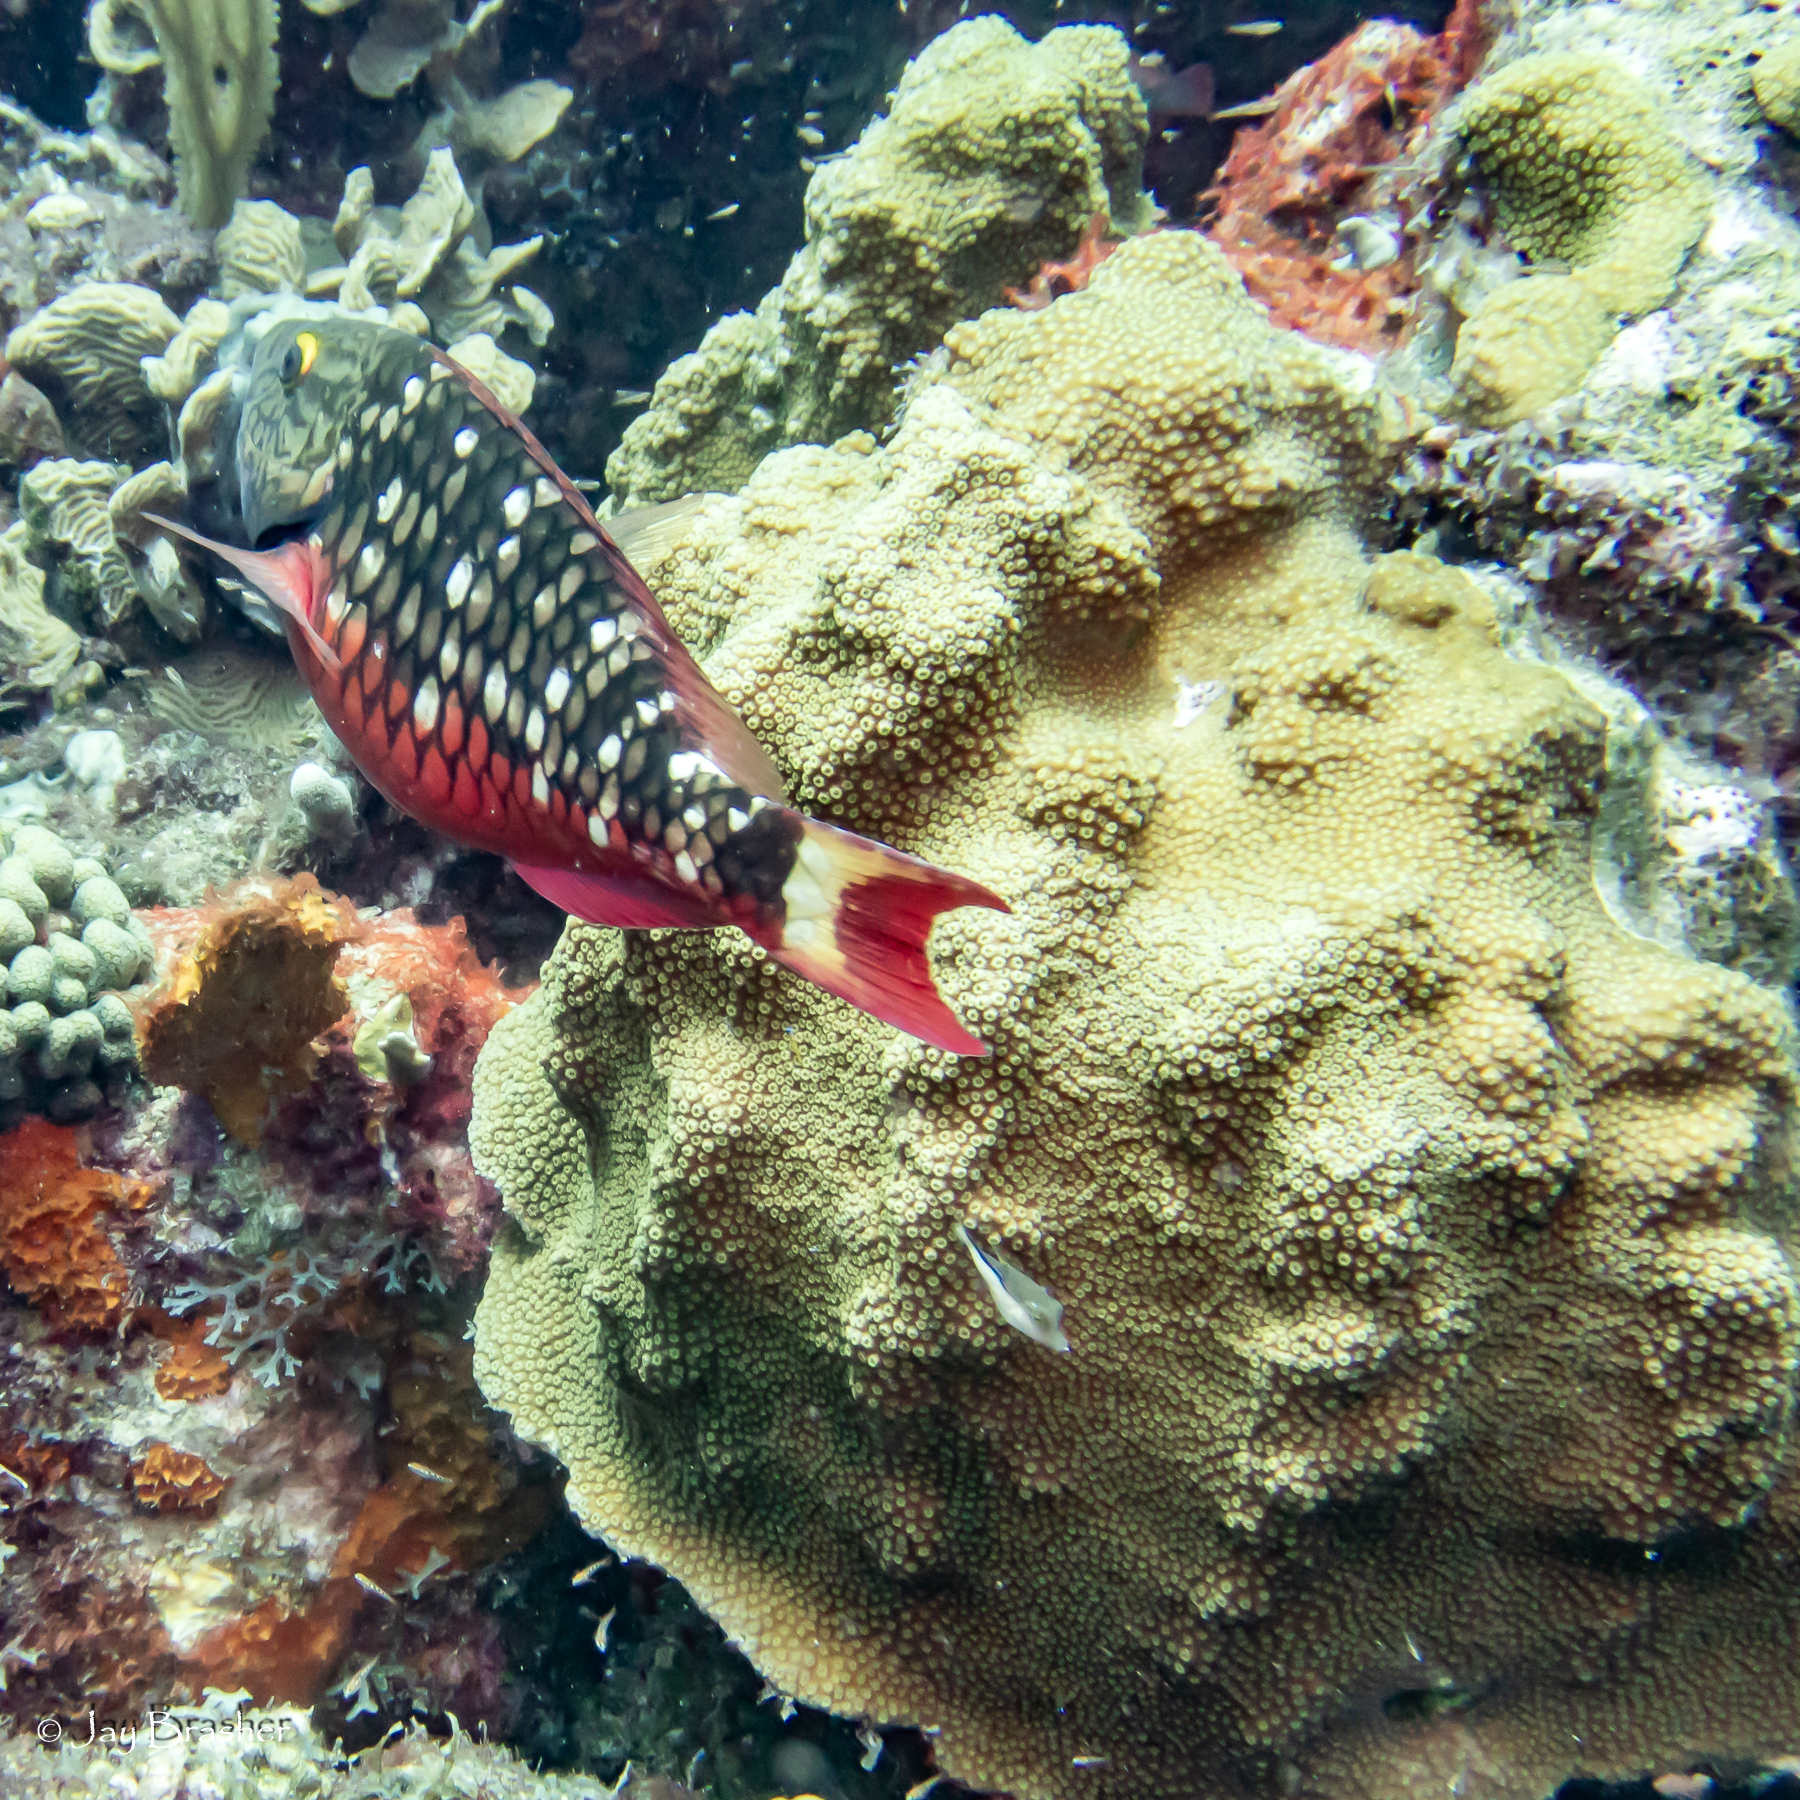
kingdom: Animalia
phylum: Chordata
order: Tetraodontiformes
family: Tetraodontidae
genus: Canthigaster
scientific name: Canthigaster rostrata
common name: Caribbean sharpnose-puffer
